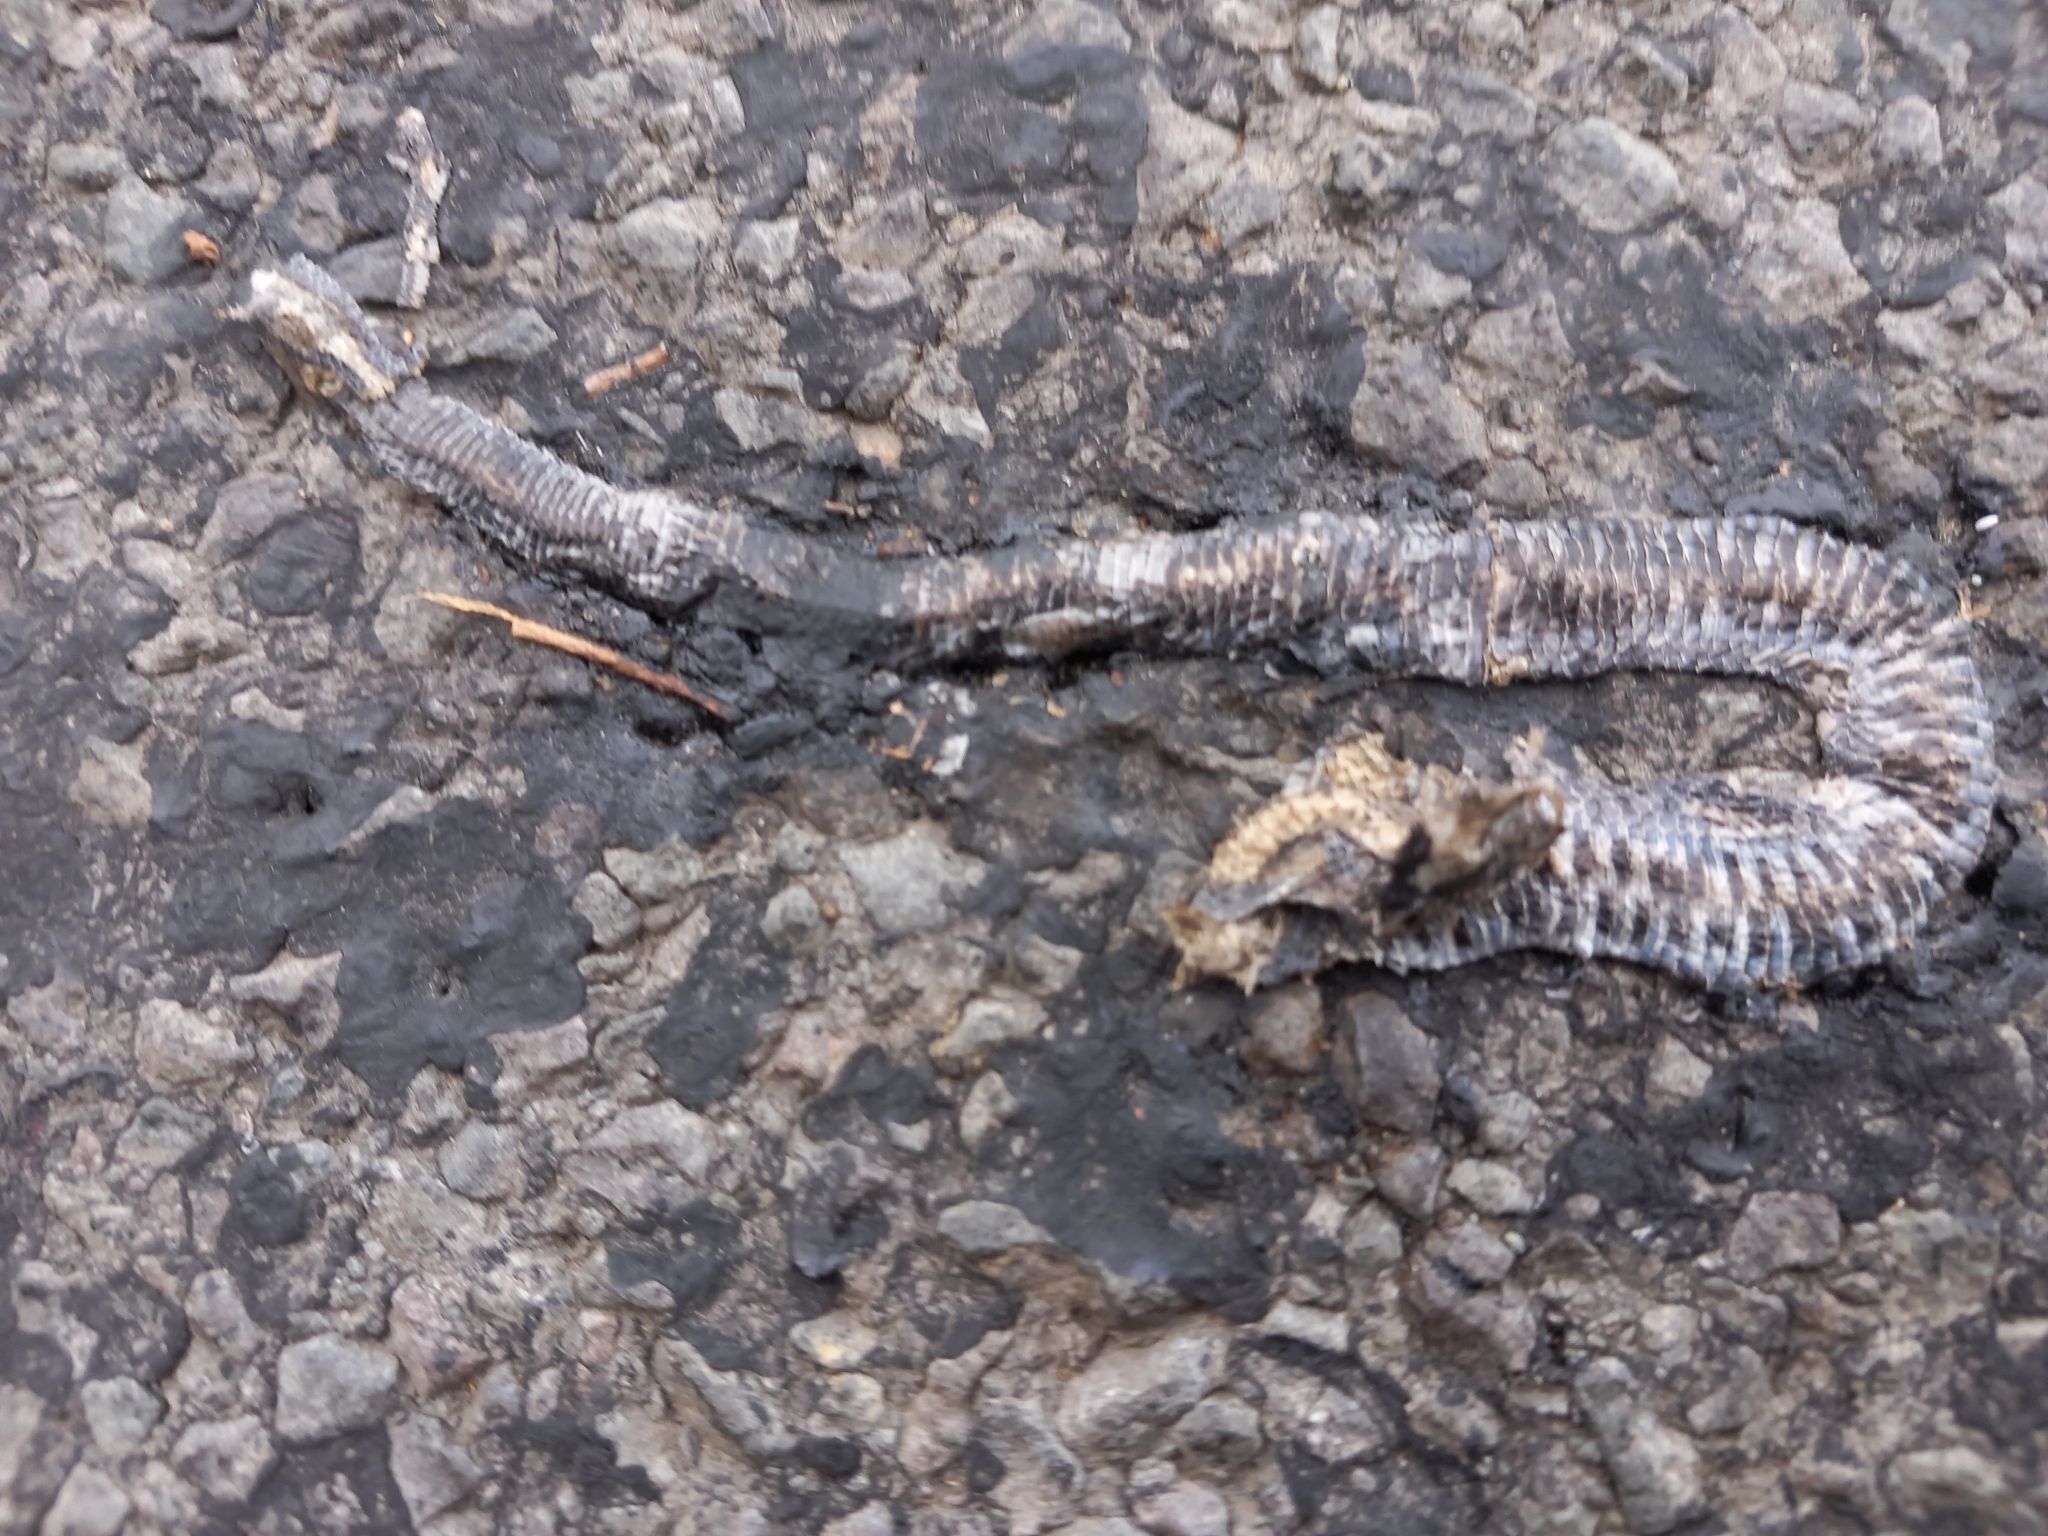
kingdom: Animalia
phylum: Chordata
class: Squamata
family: Colubridae
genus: Natrix
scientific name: Natrix natrix
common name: Grass snake
